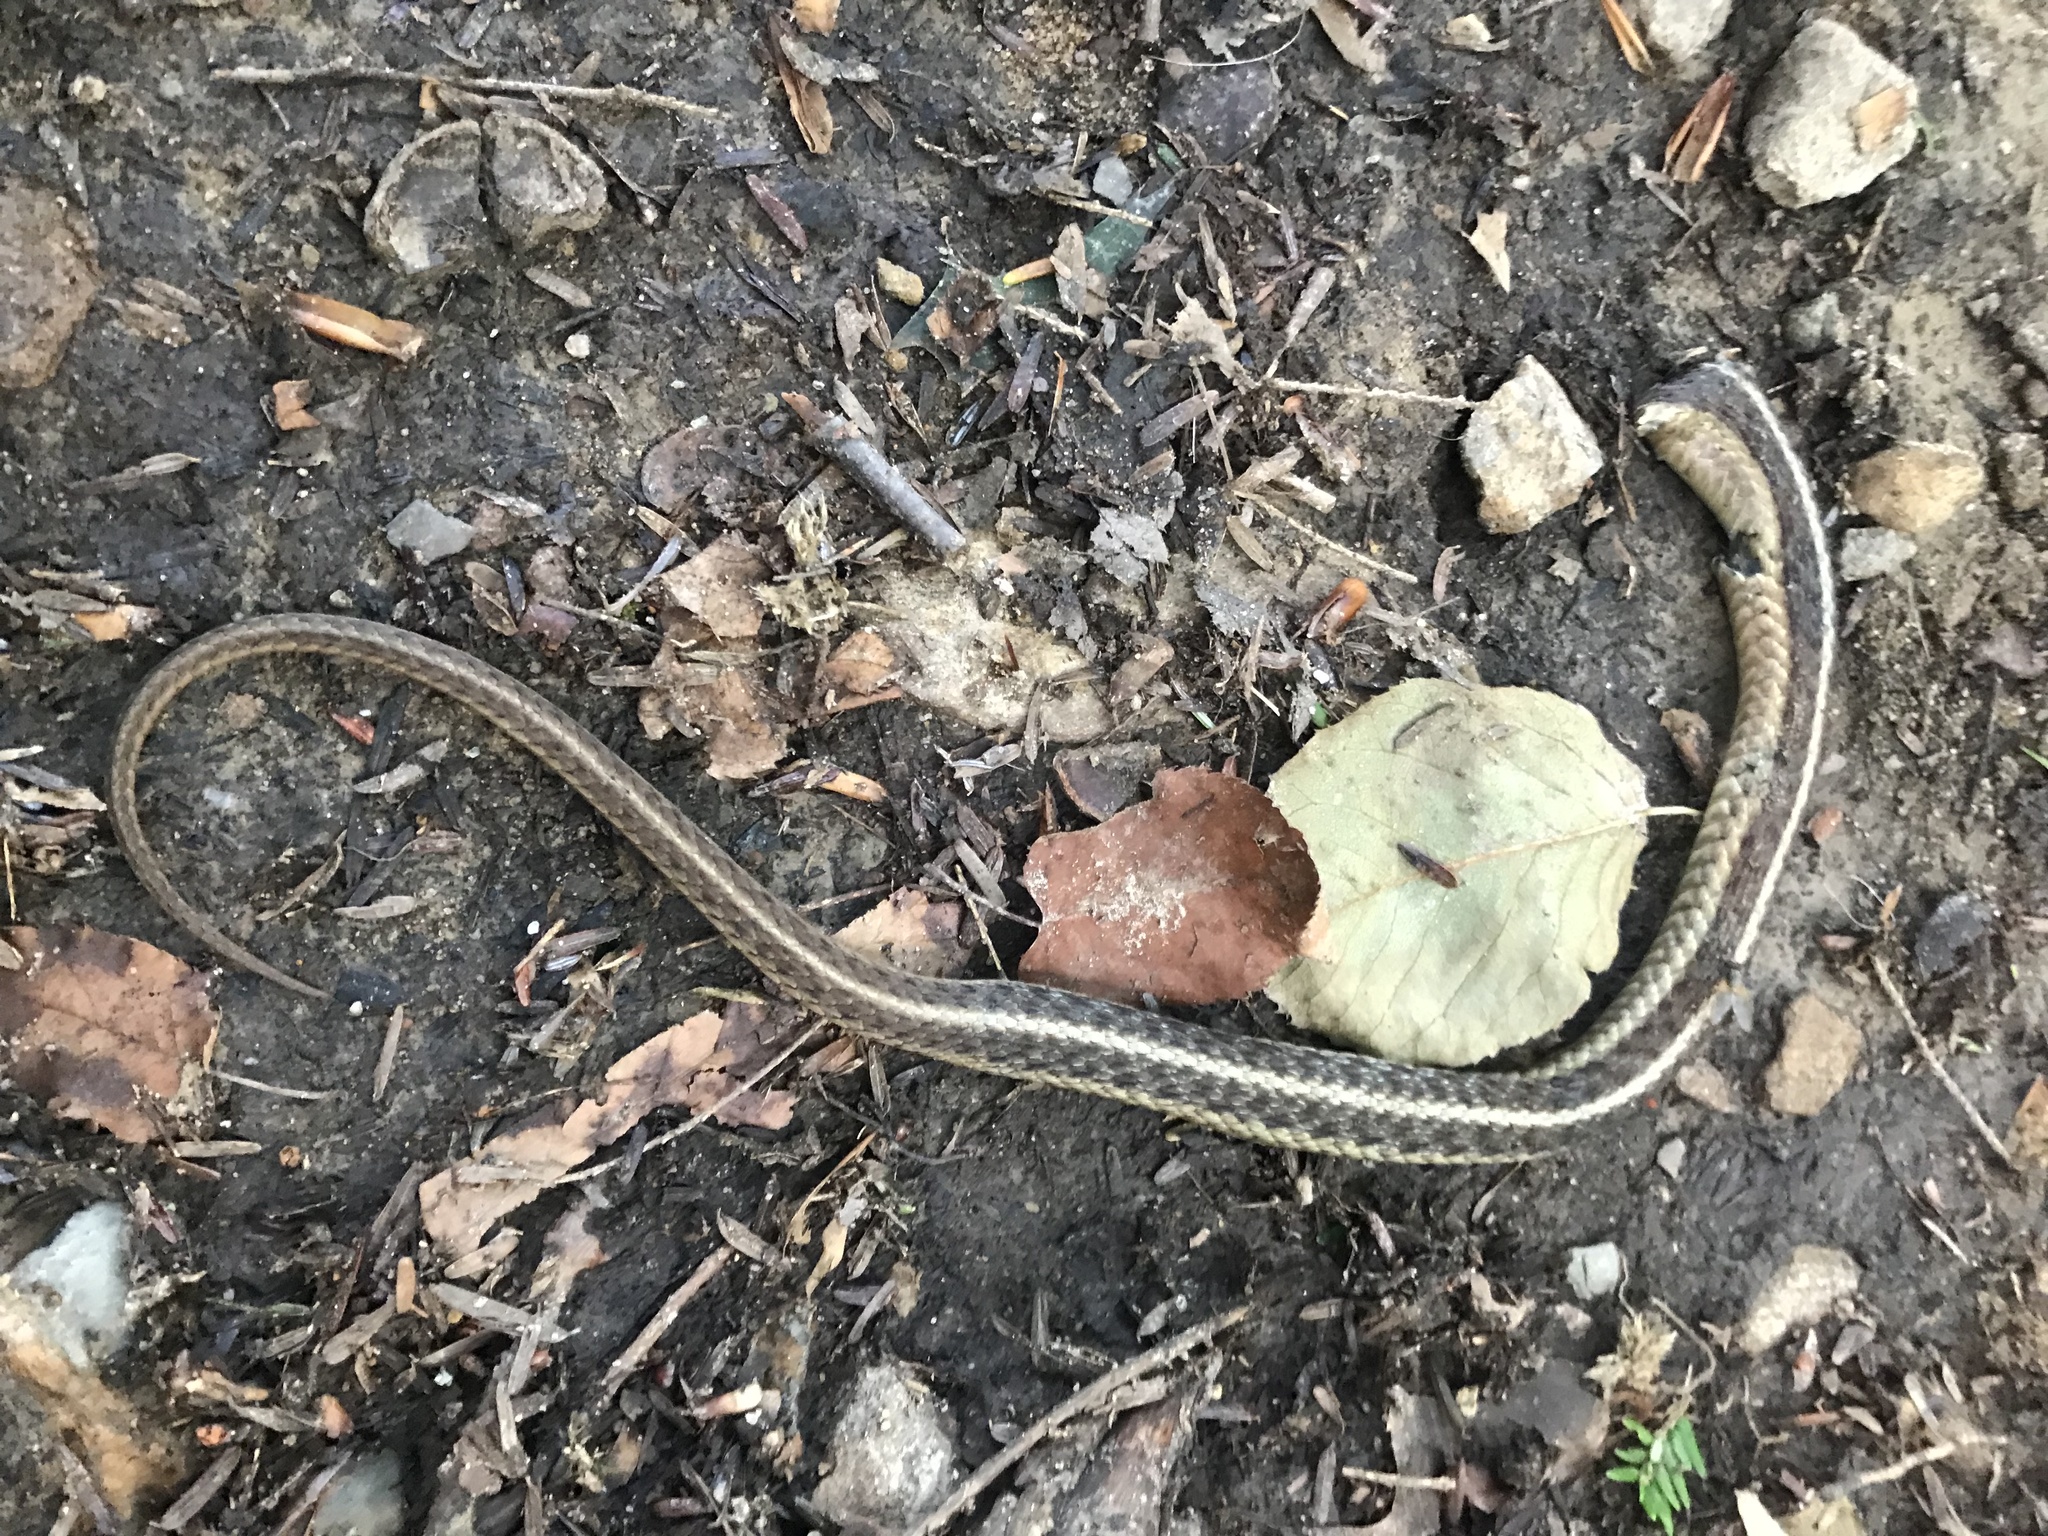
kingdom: Animalia
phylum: Chordata
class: Squamata
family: Colubridae
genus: Thamnophis
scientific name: Thamnophis sirtalis
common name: Common garter snake
